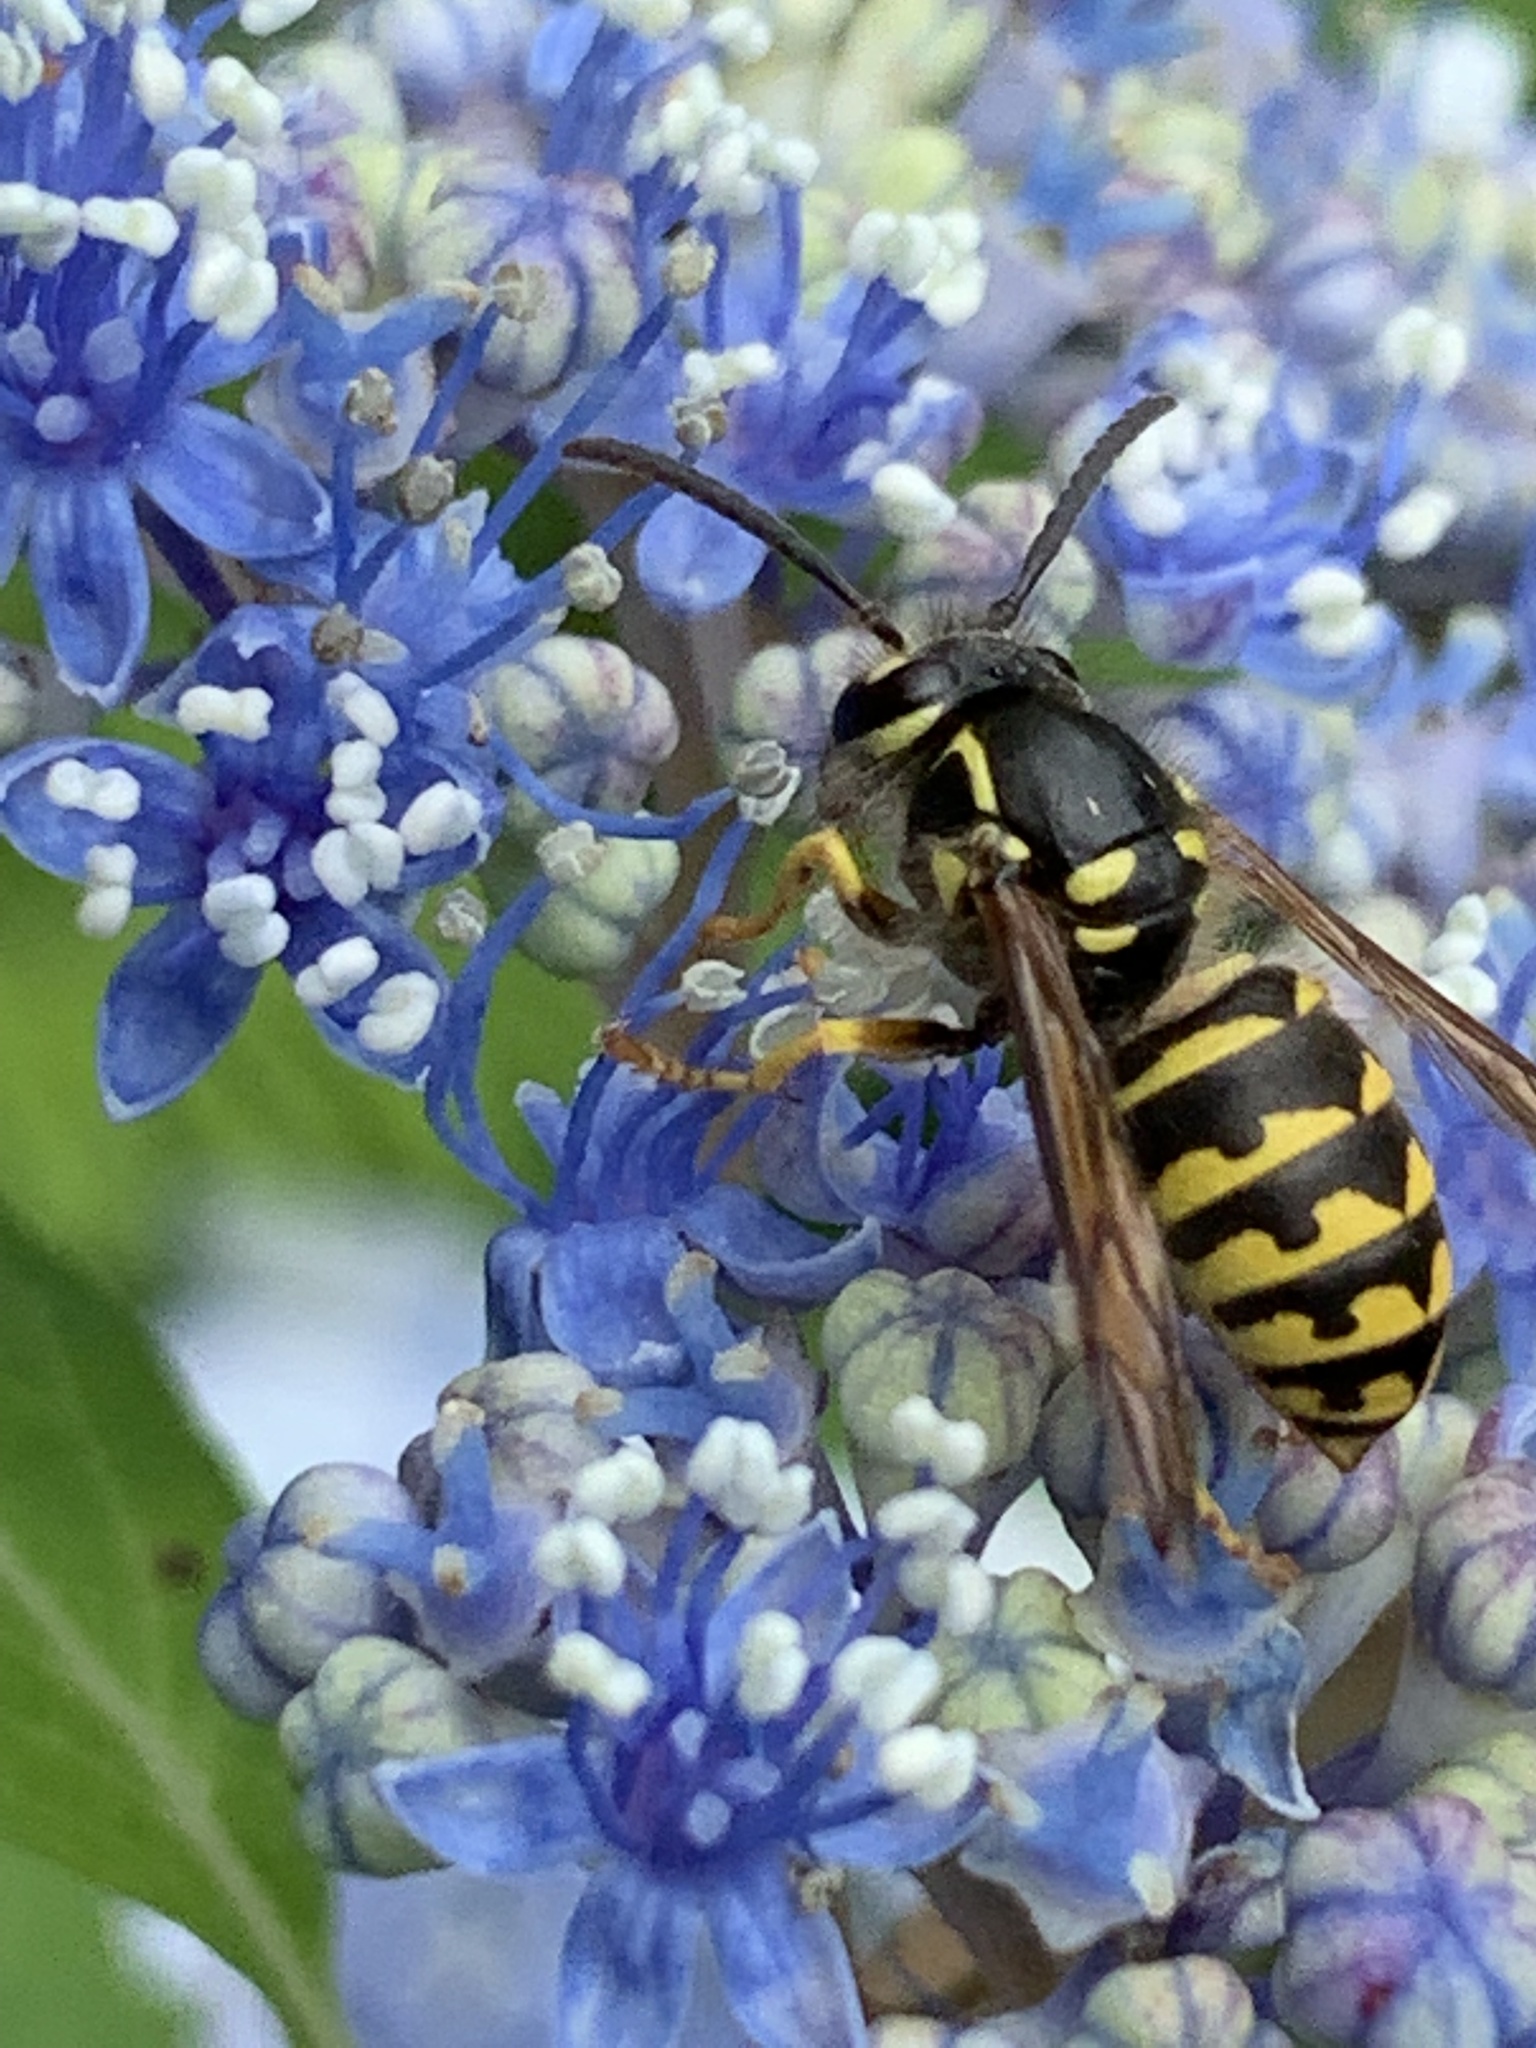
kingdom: Animalia
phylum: Arthropoda
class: Insecta
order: Hymenoptera
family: Vespidae
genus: Dolichovespula
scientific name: Dolichovespula arenaria
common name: Aerial yellowjacket
